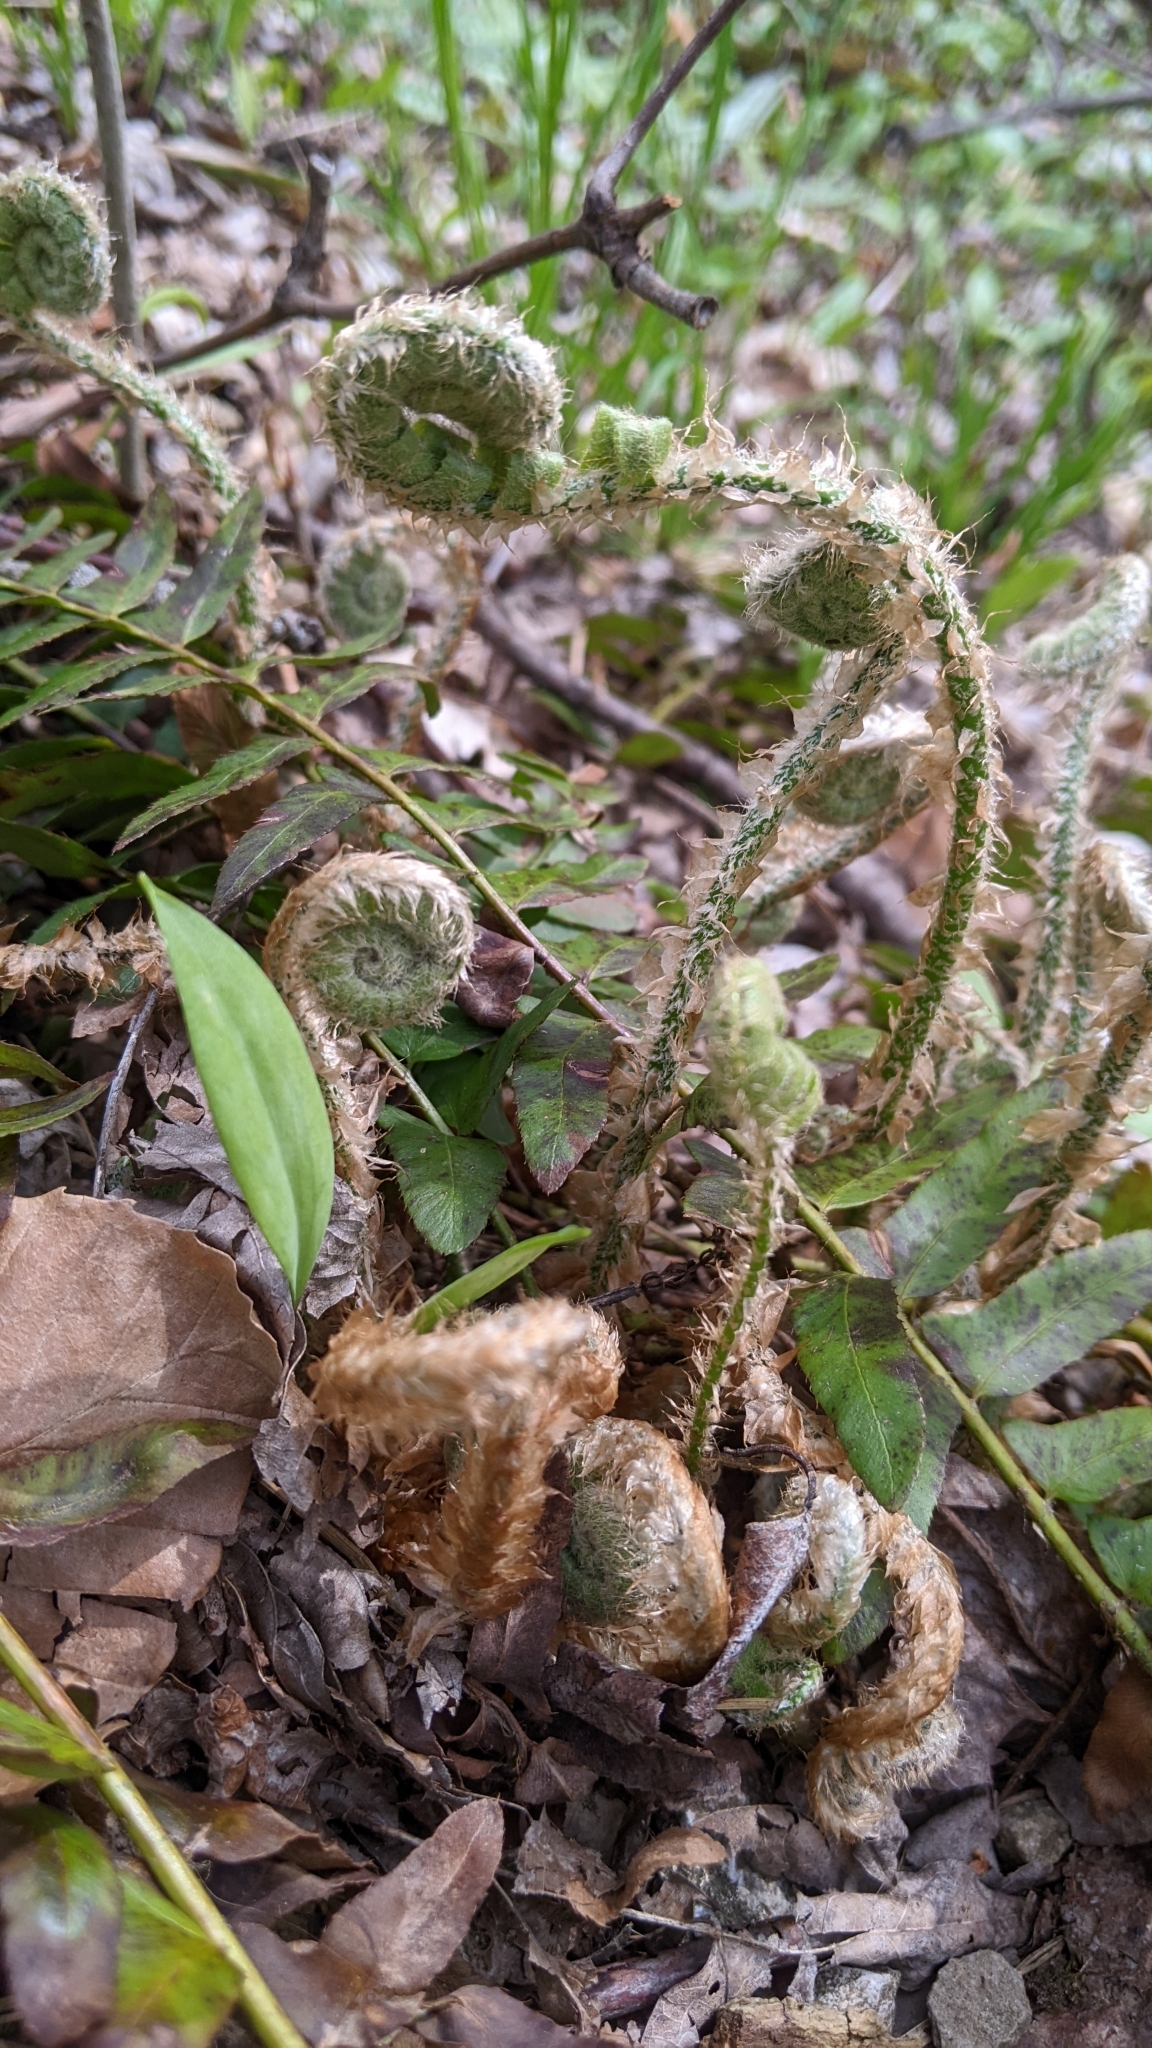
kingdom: Plantae
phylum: Tracheophyta
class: Polypodiopsida
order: Polypodiales
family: Dryopteridaceae
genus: Polystichum
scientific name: Polystichum acrostichoides
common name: Christmas fern
